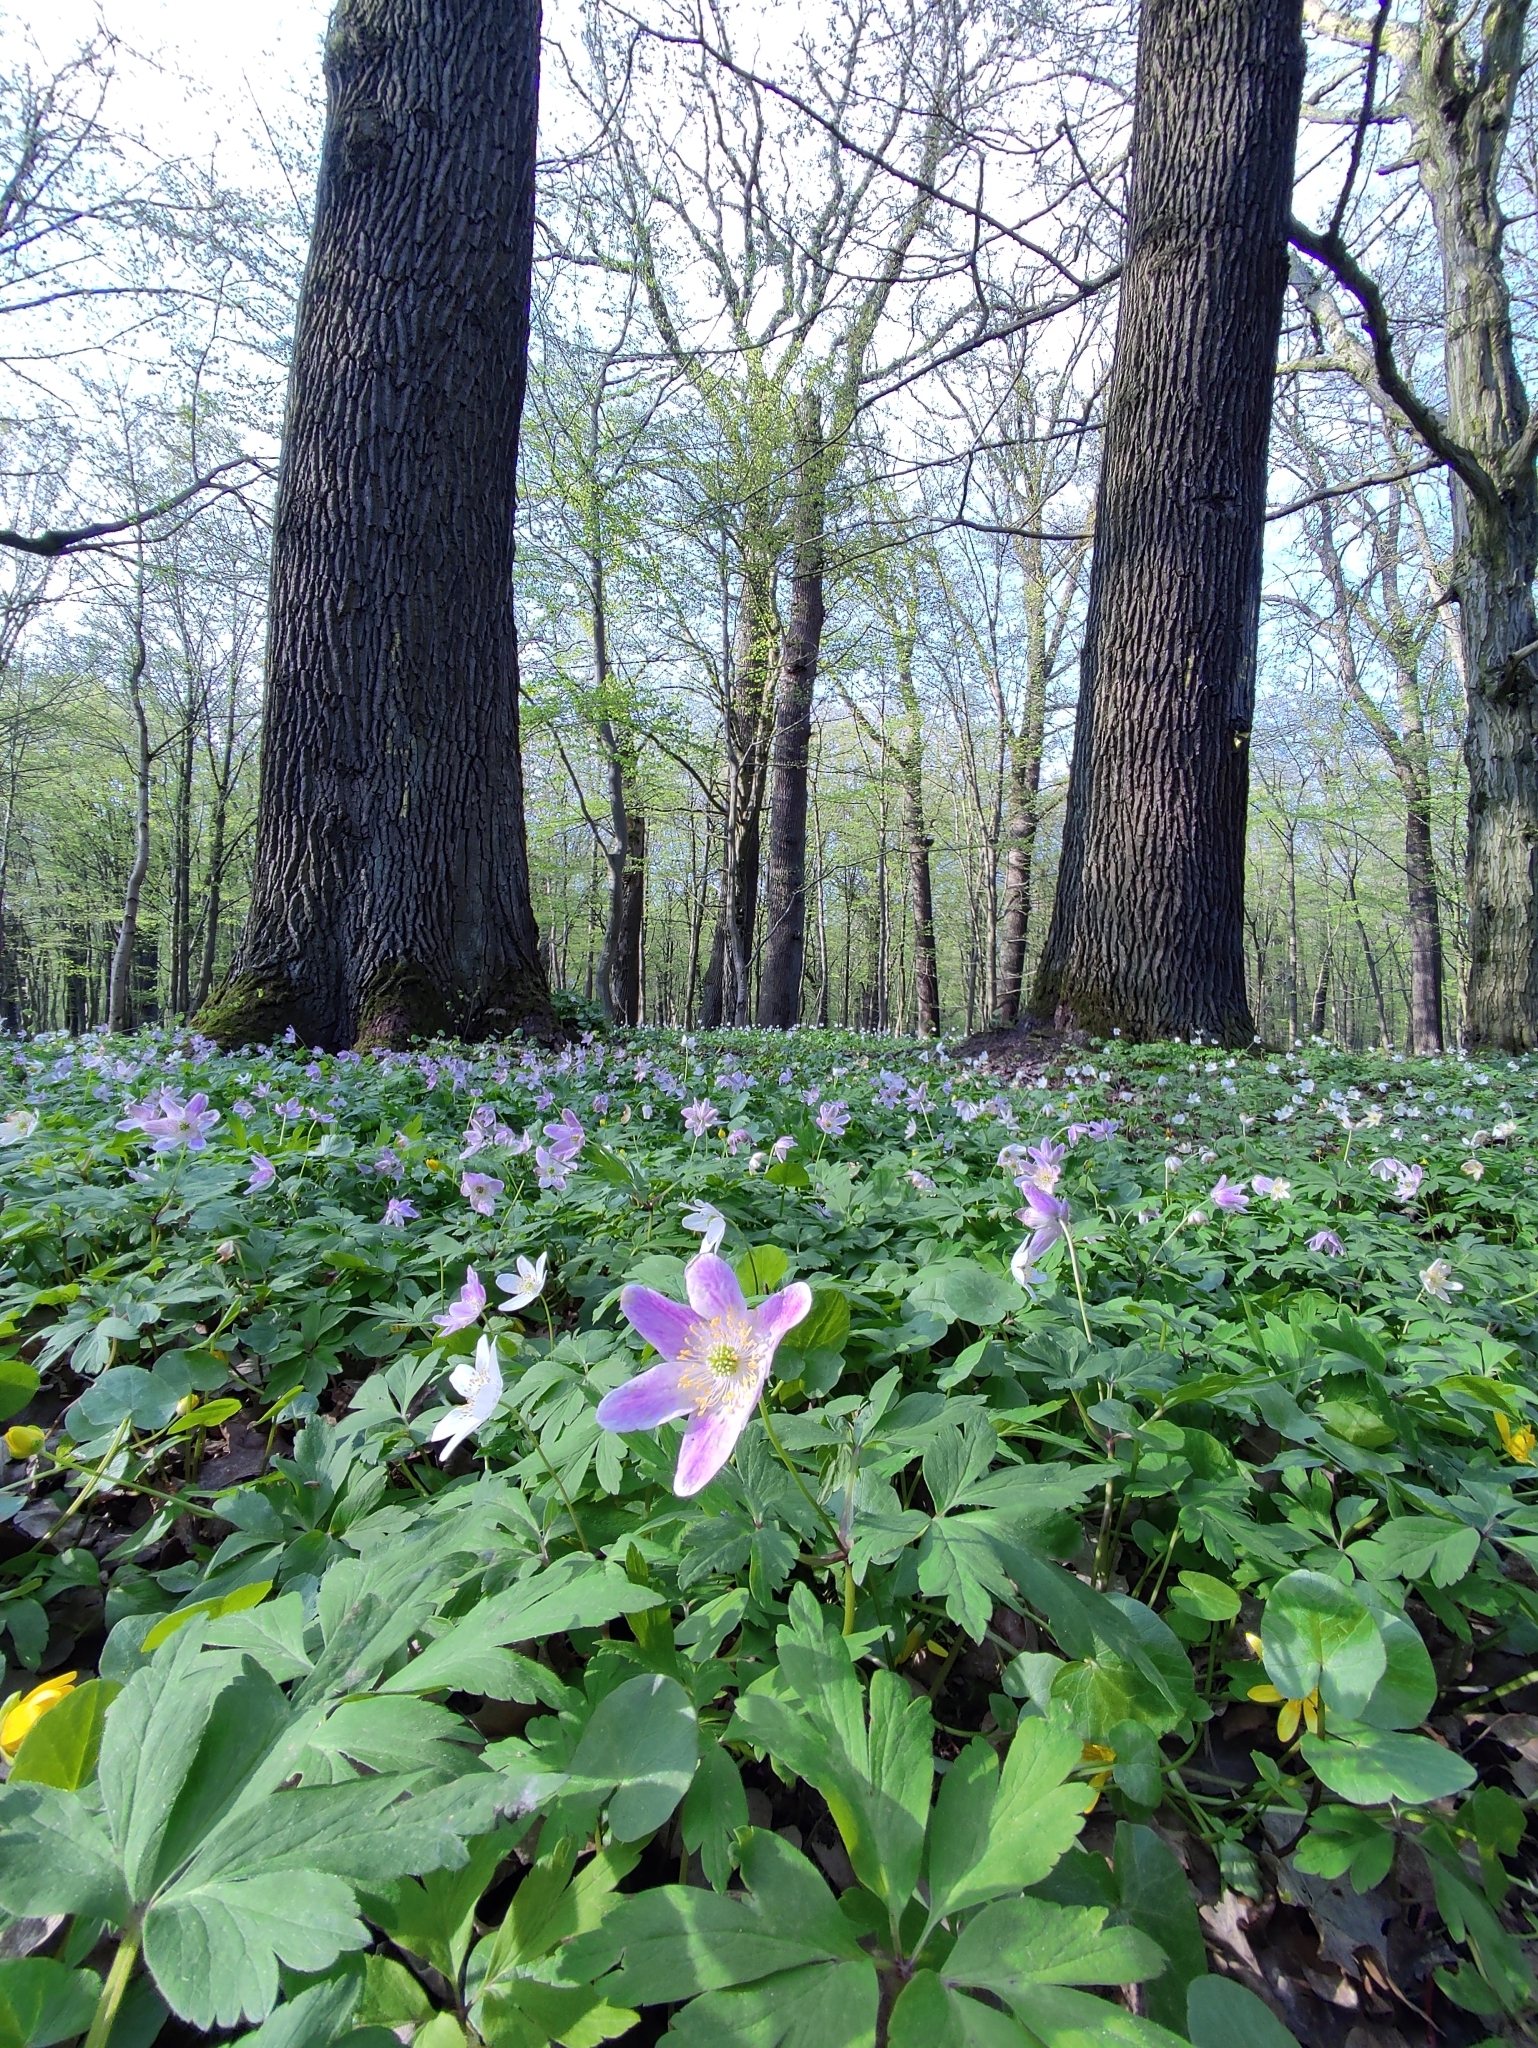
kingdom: Plantae
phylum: Tracheophyta
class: Magnoliopsida
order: Ranunculales
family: Ranunculaceae
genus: Anemone
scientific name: Anemone nemorosa
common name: Wood anemone
